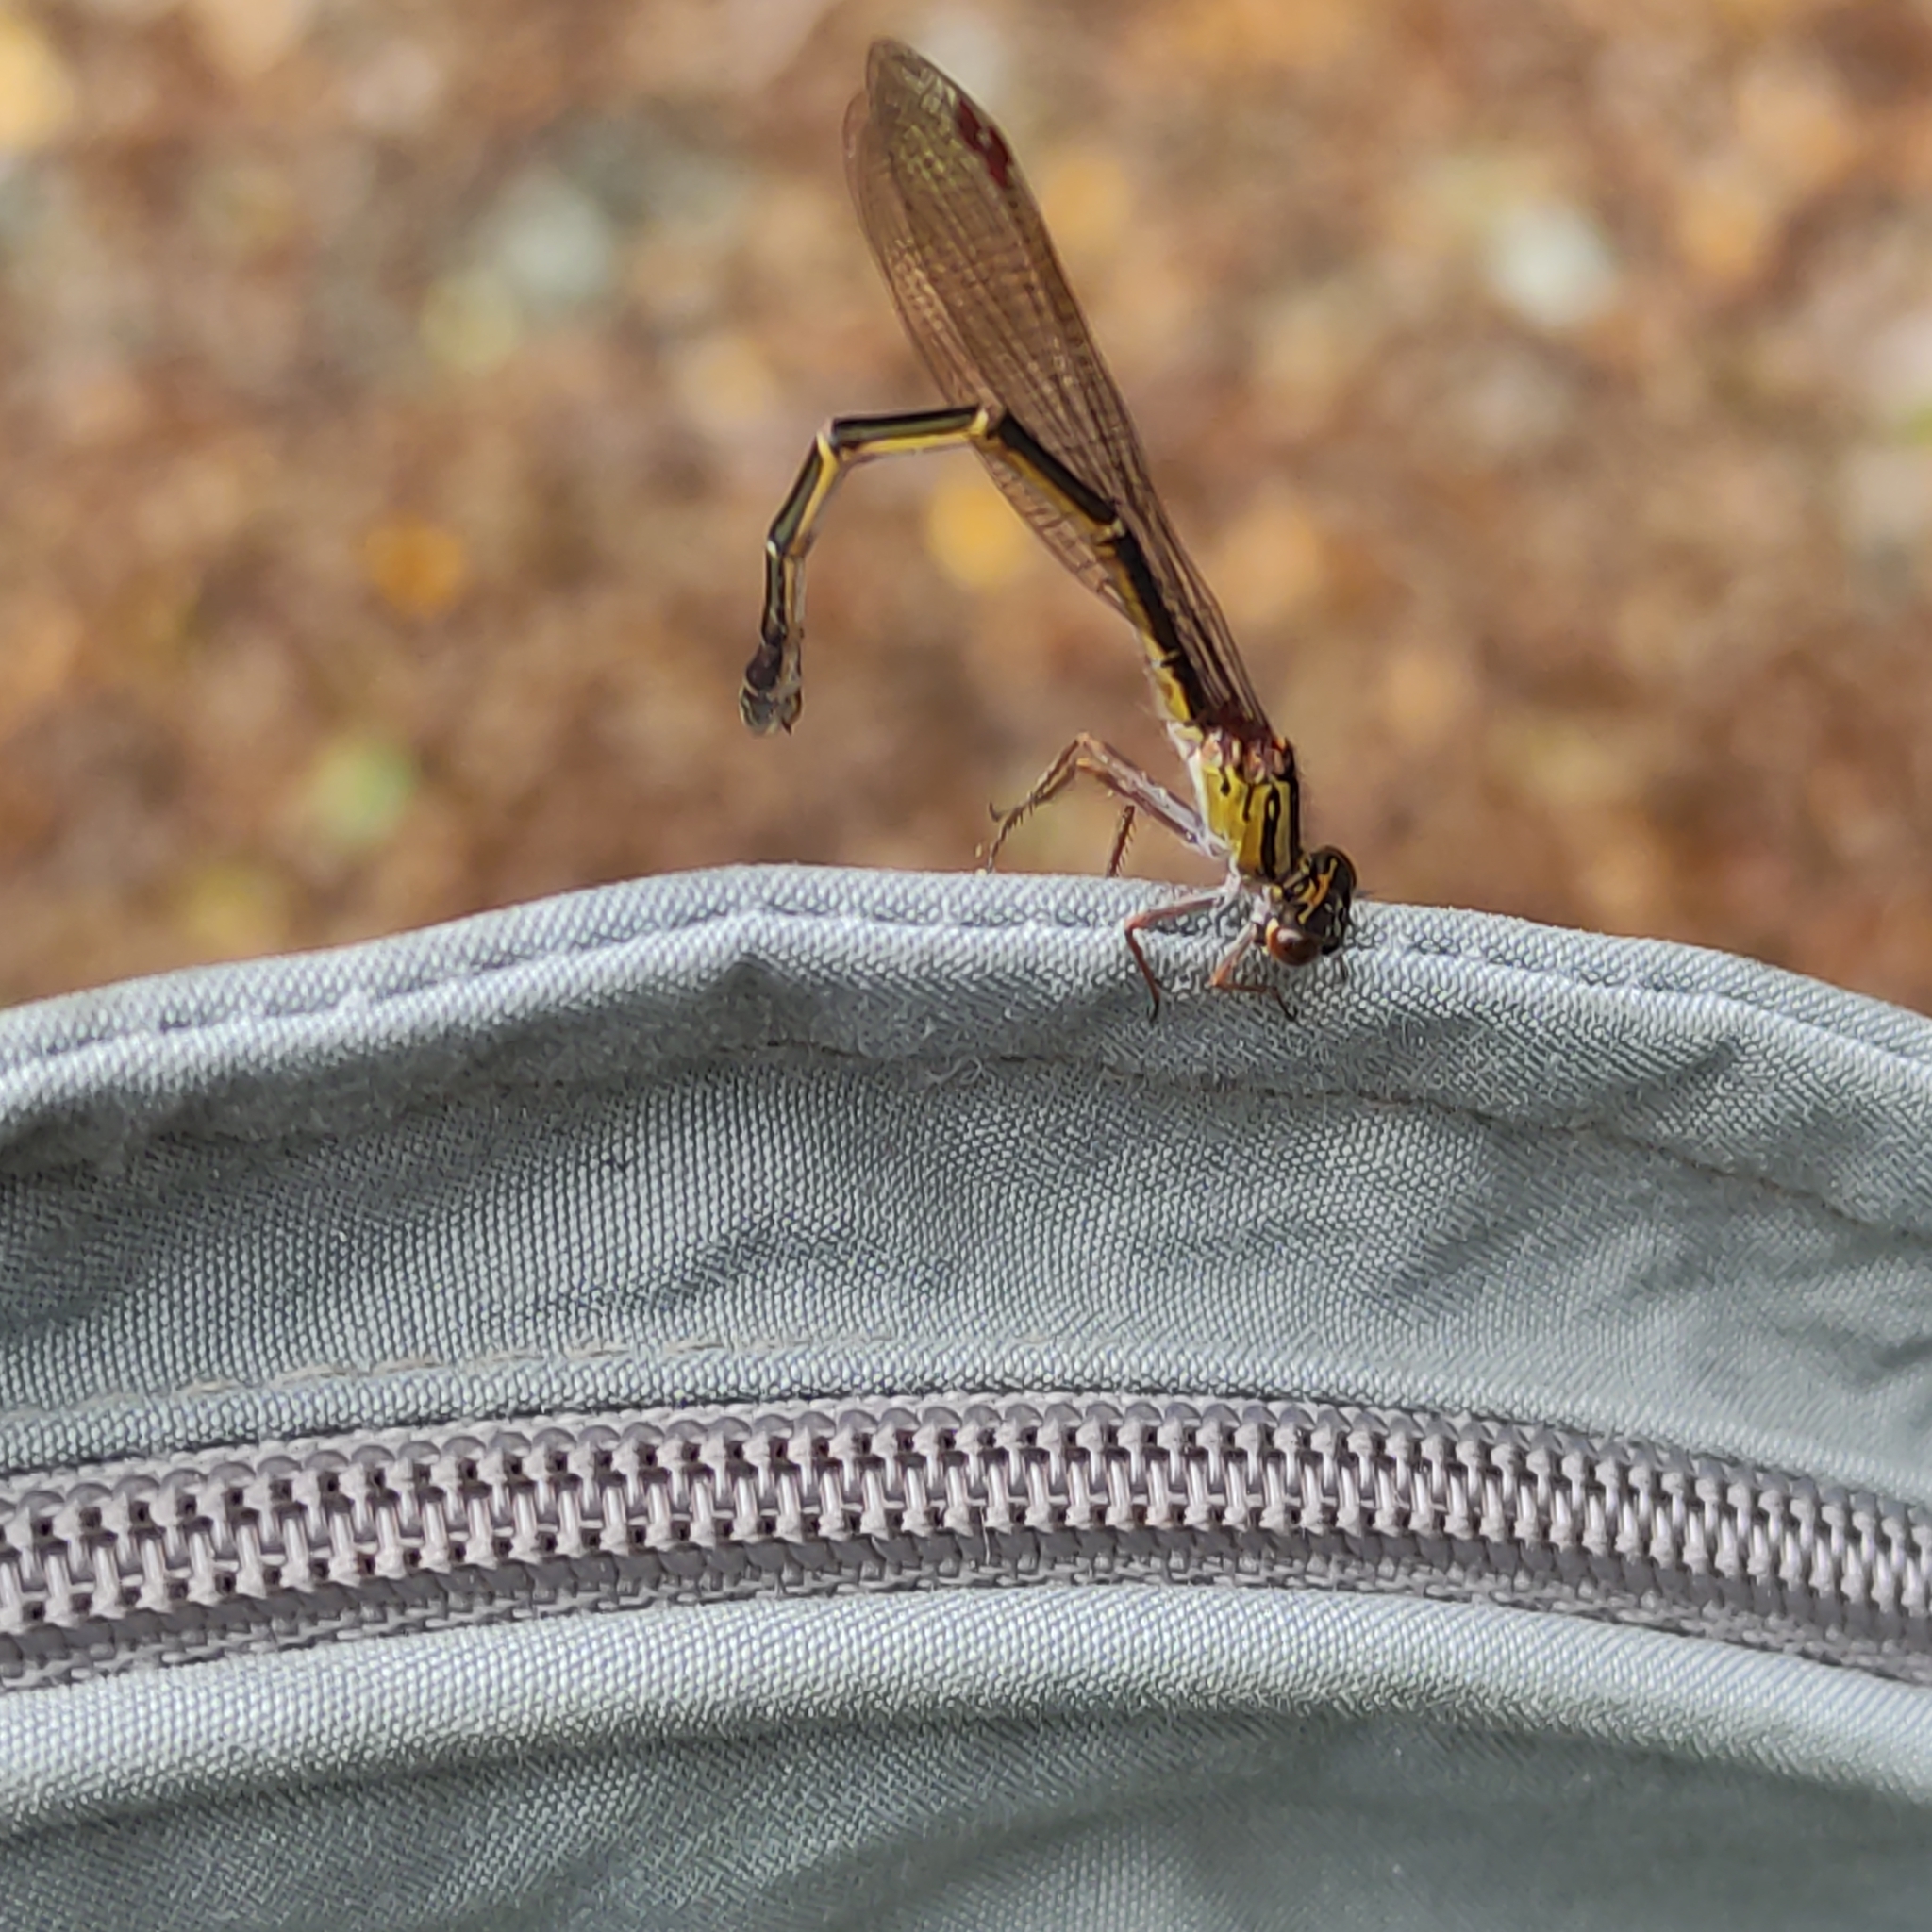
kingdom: Animalia
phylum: Arthropoda
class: Insecta
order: Odonata
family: Coenagrionidae
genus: Xanthocnemis
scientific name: Xanthocnemis zealandica
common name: Common redcoat damselfly
